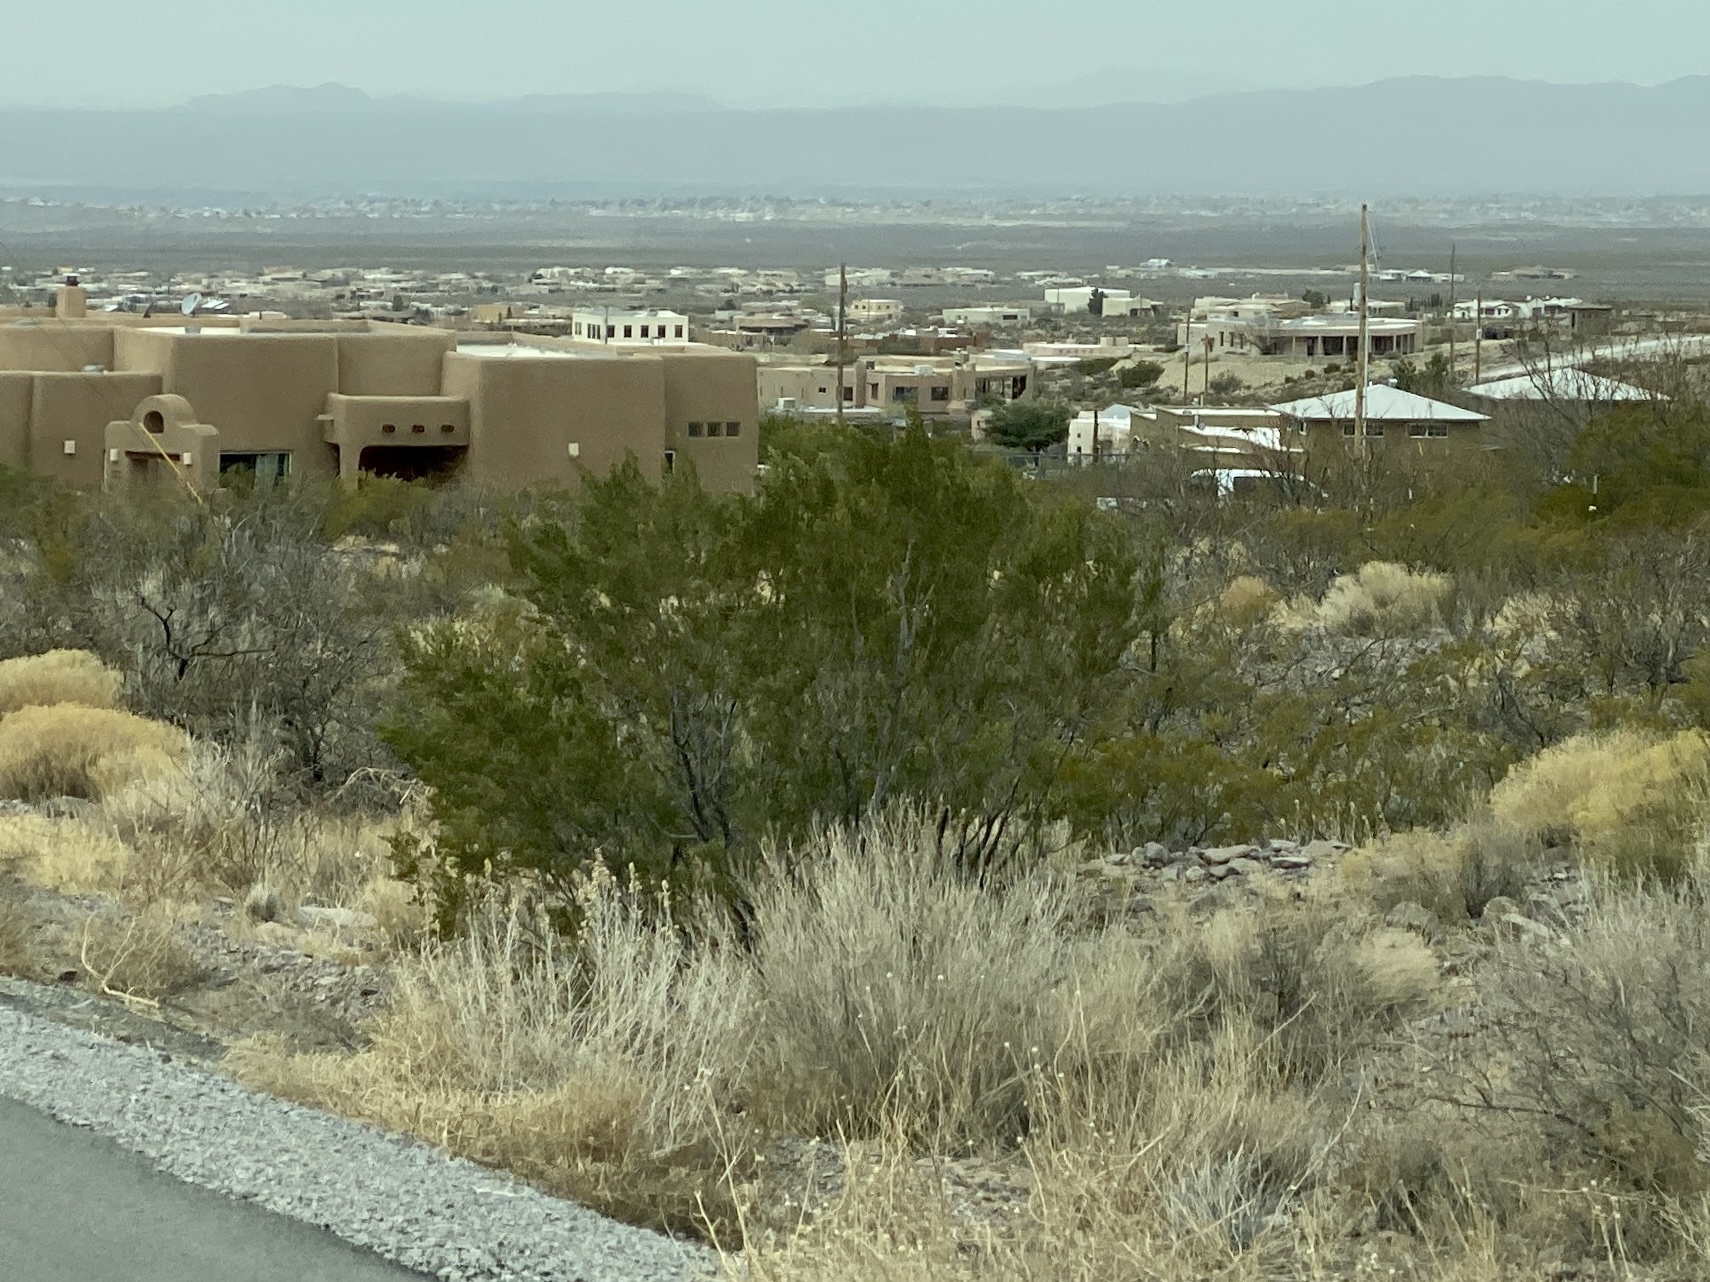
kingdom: Plantae
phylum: Tracheophyta
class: Magnoliopsida
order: Zygophyllales
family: Zygophyllaceae
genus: Larrea
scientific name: Larrea tridentata
